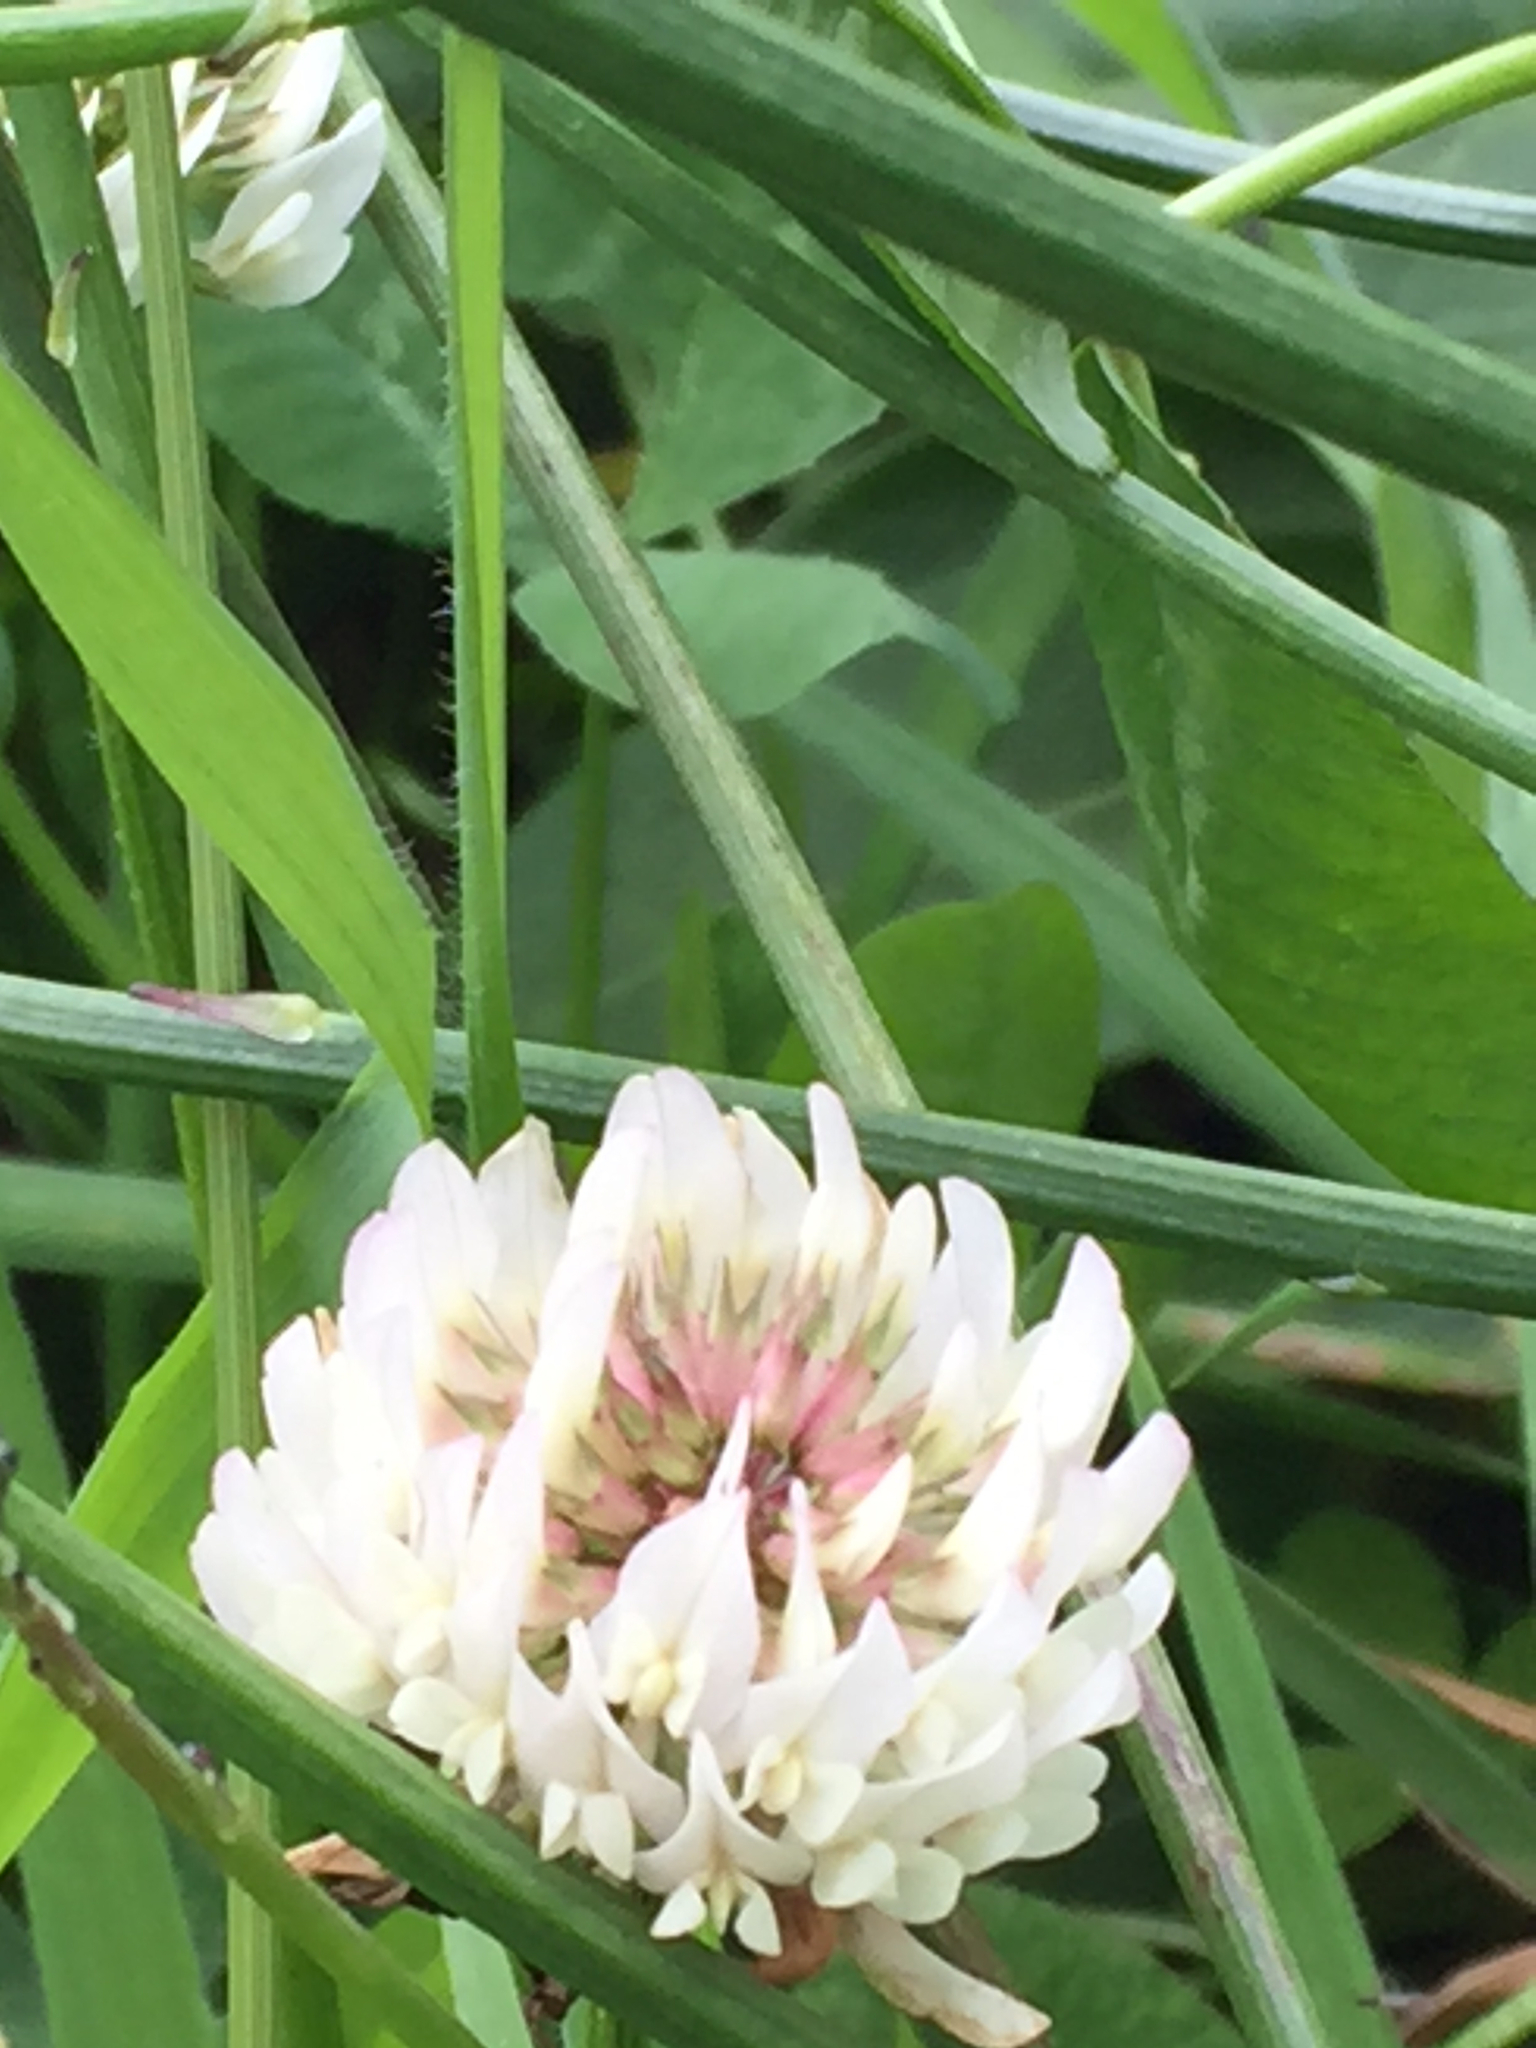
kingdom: Plantae
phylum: Tracheophyta
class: Magnoliopsida
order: Fabales
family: Fabaceae
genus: Trifolium
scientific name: Trifolium repens
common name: White clover
